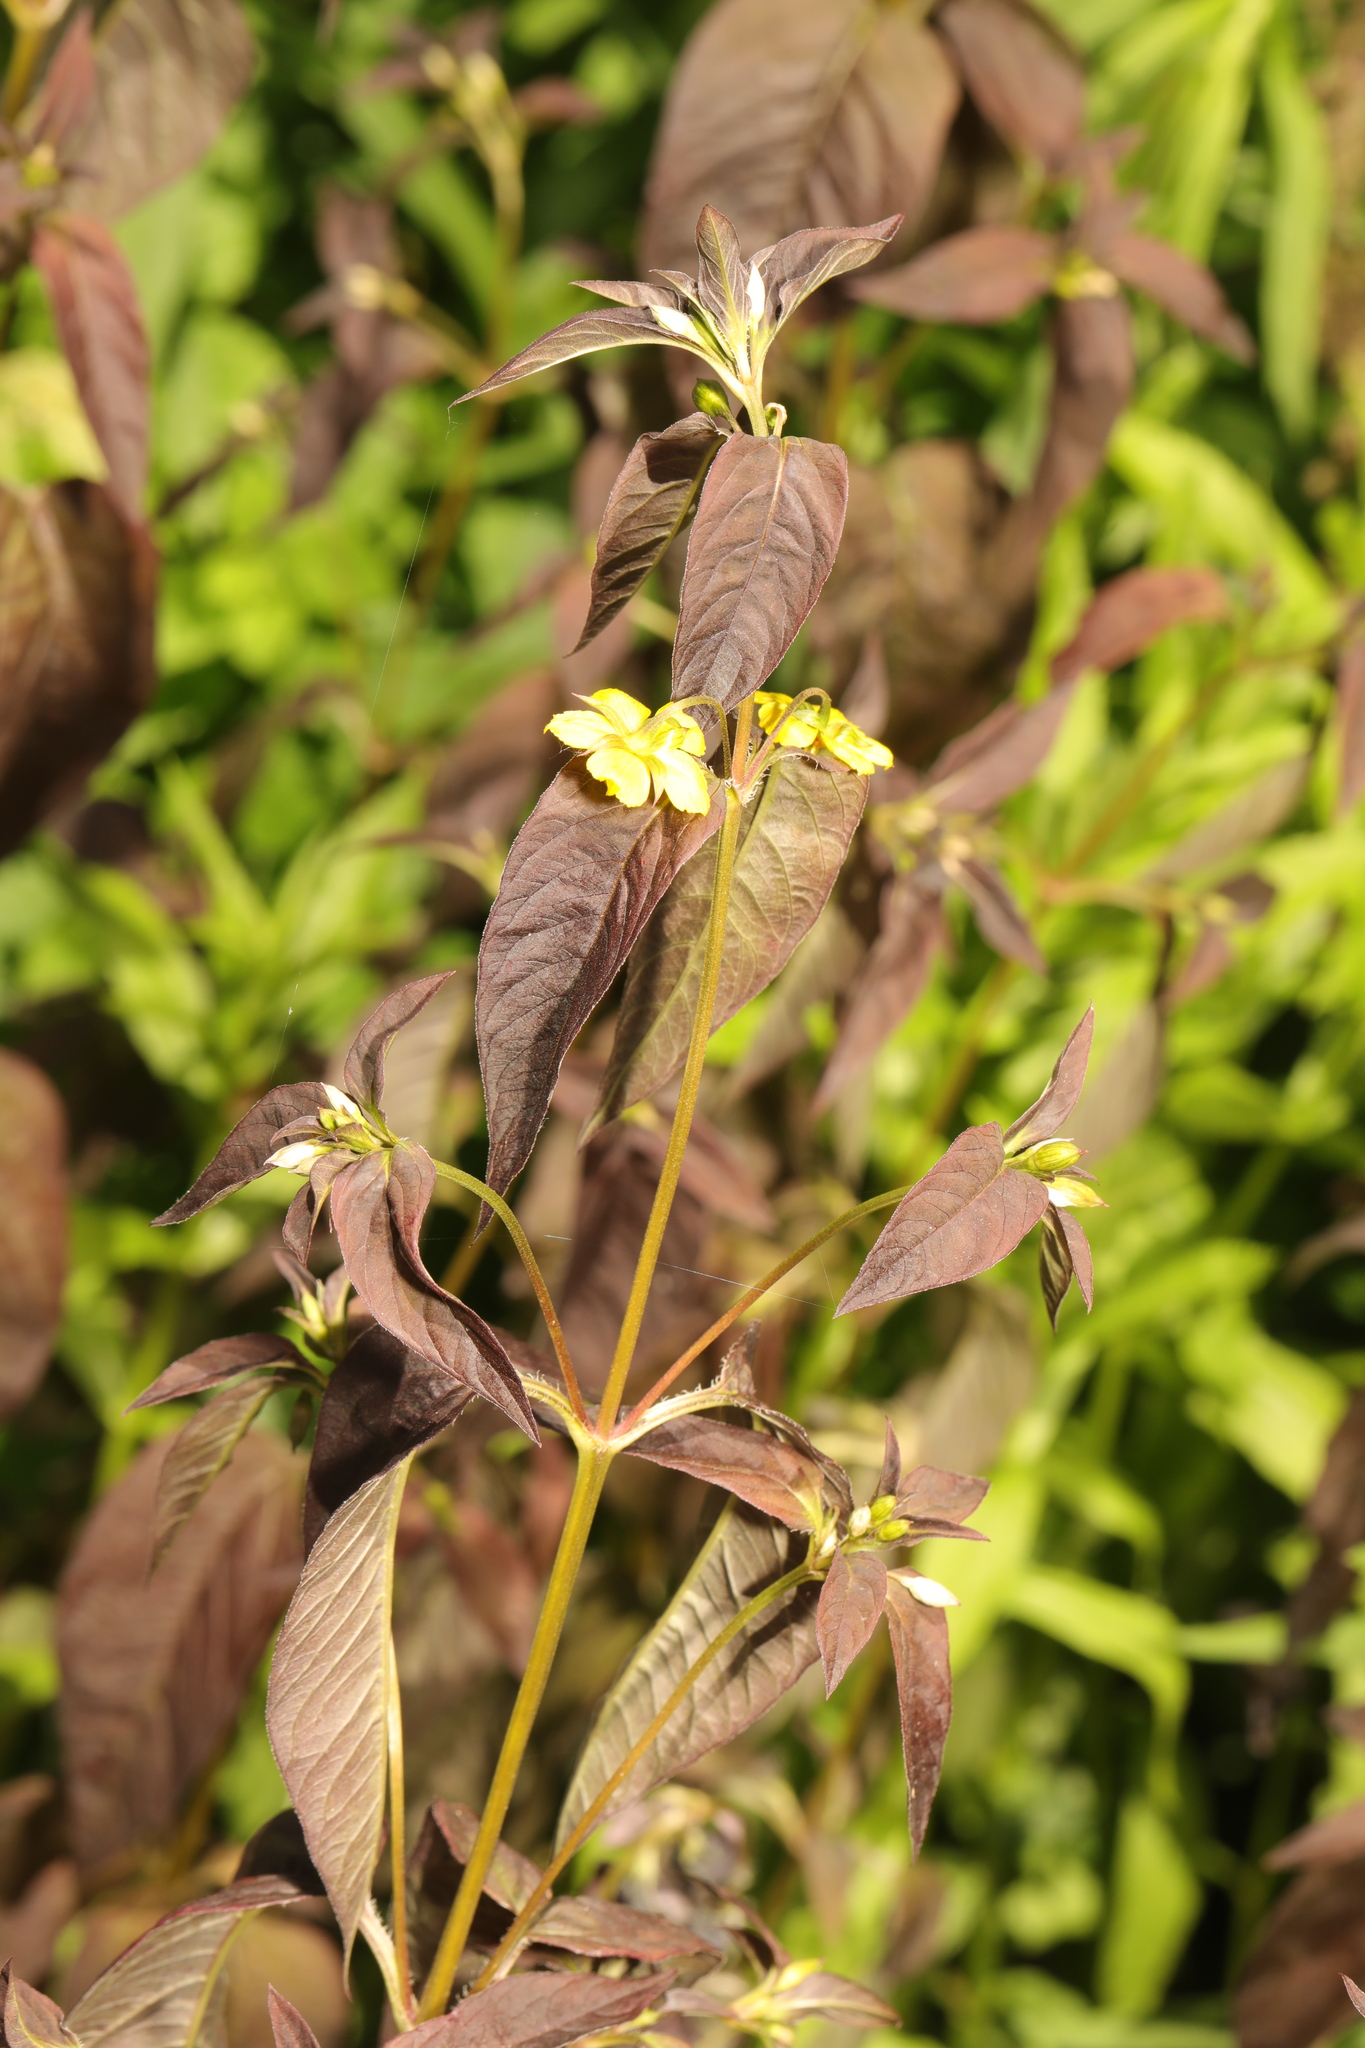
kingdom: Plantae
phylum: Tracheophyta
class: Magnoliopsida
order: Ericales
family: Primulaceae
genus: Lysimachia
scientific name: Lysimachia ciliata
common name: Fringed loosestrife
